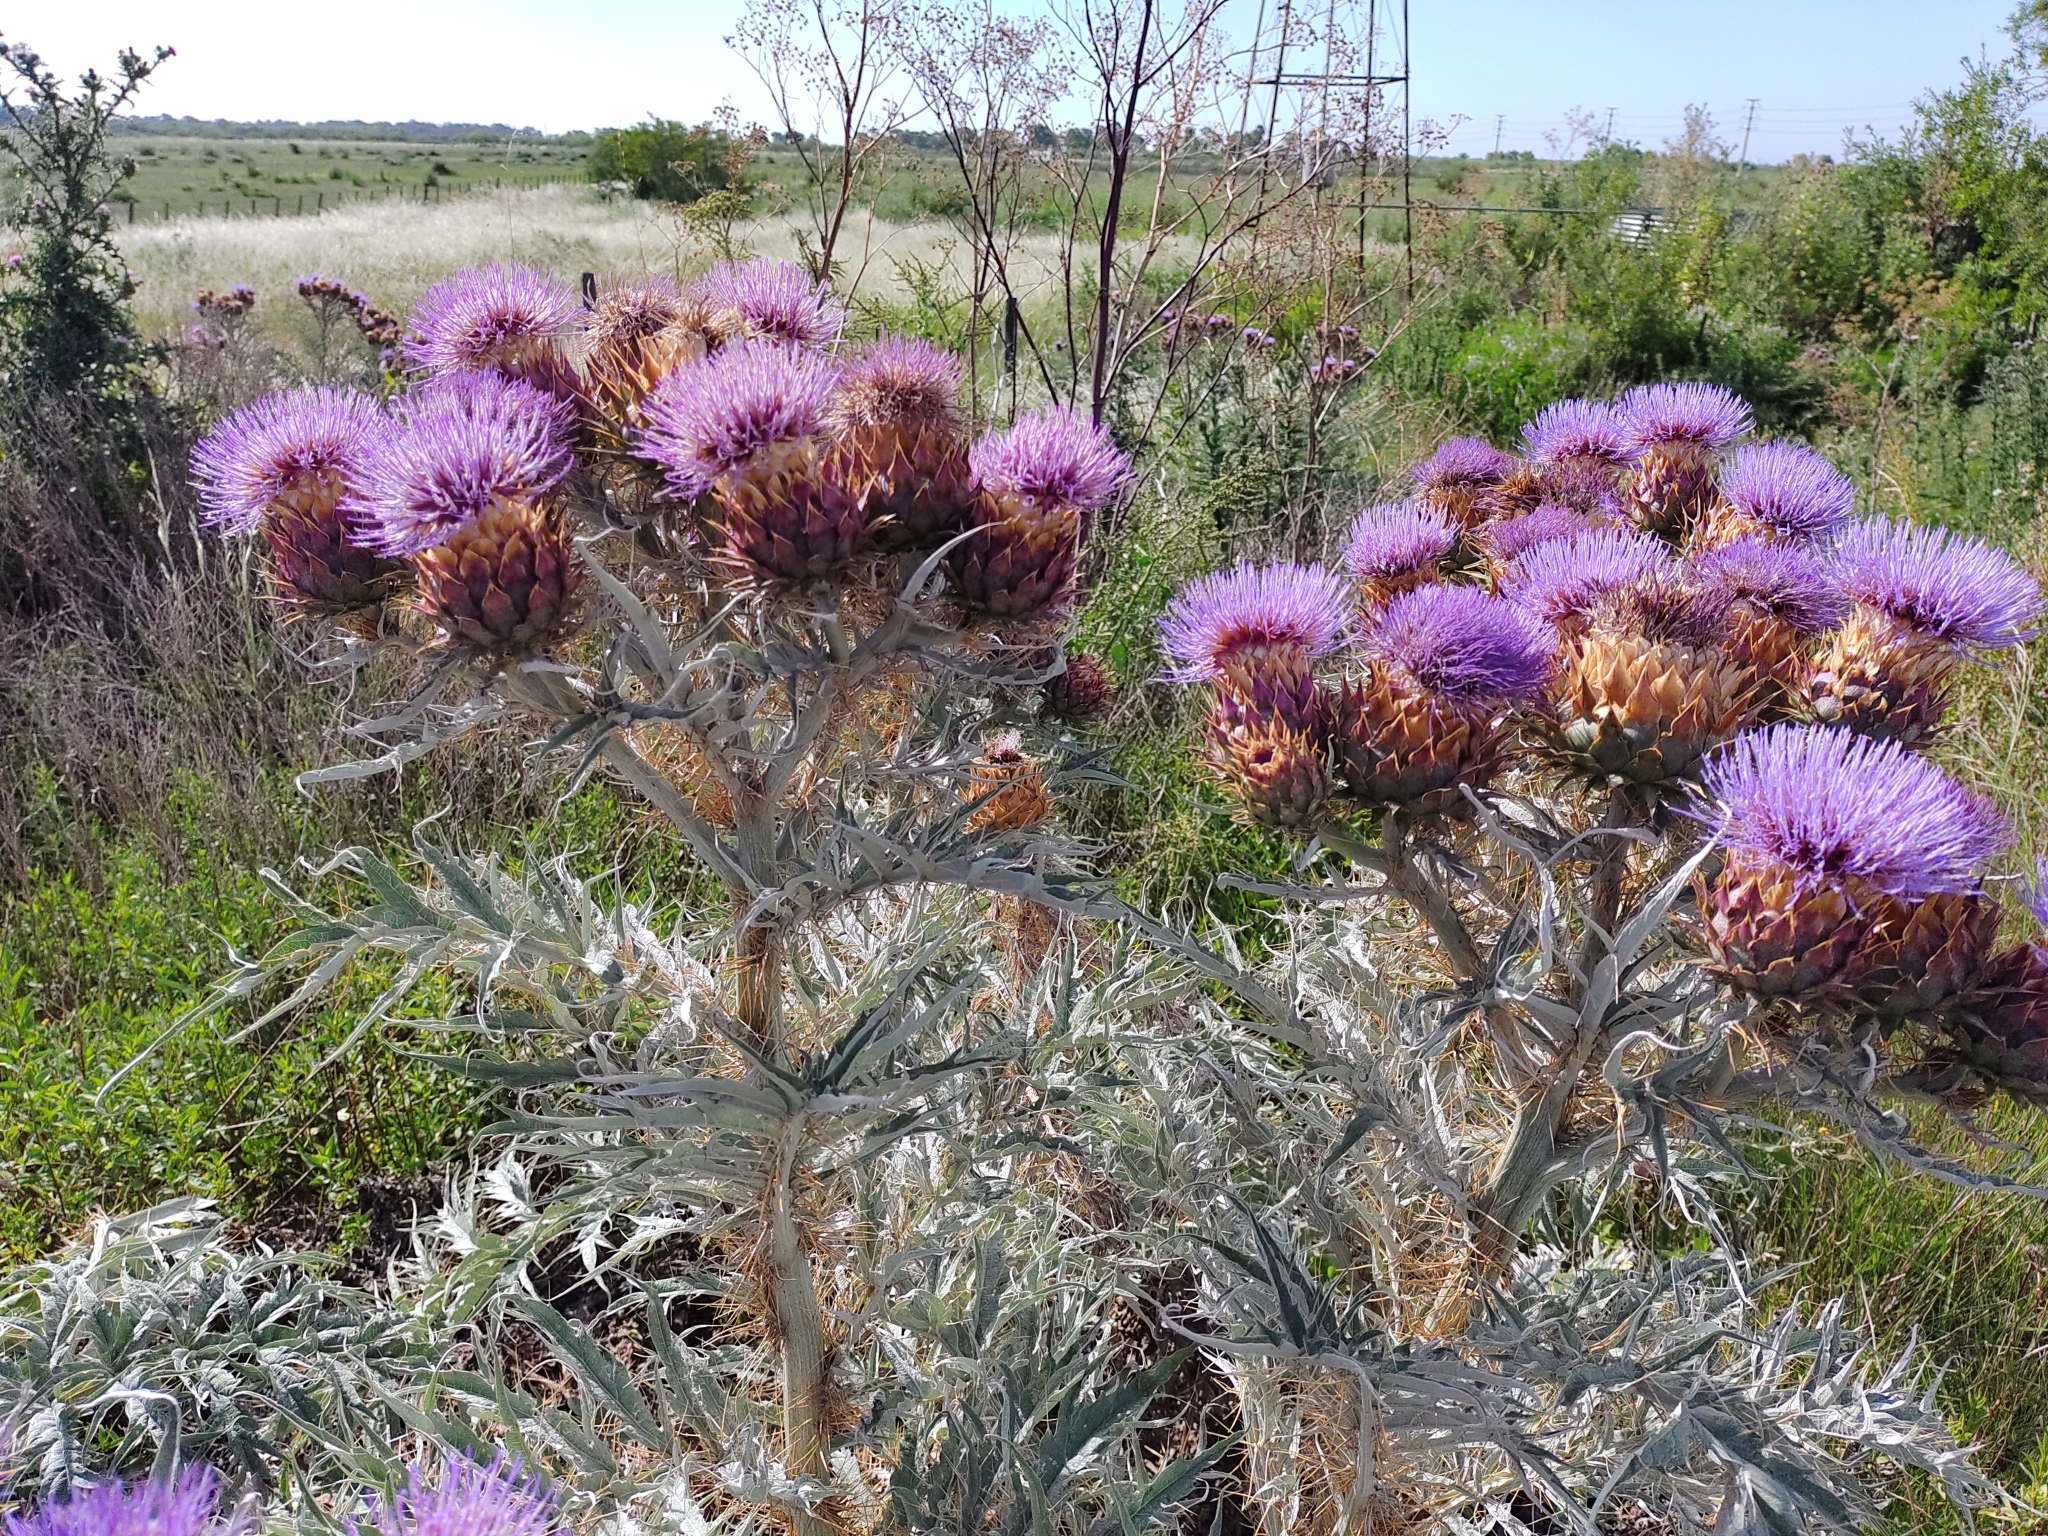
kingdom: Plantae
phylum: Tracheophyta
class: Magnoliopsida
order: Asterales
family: Asteraceae
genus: Cynara
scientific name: Cynara cardunculus
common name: Globe artichoke
